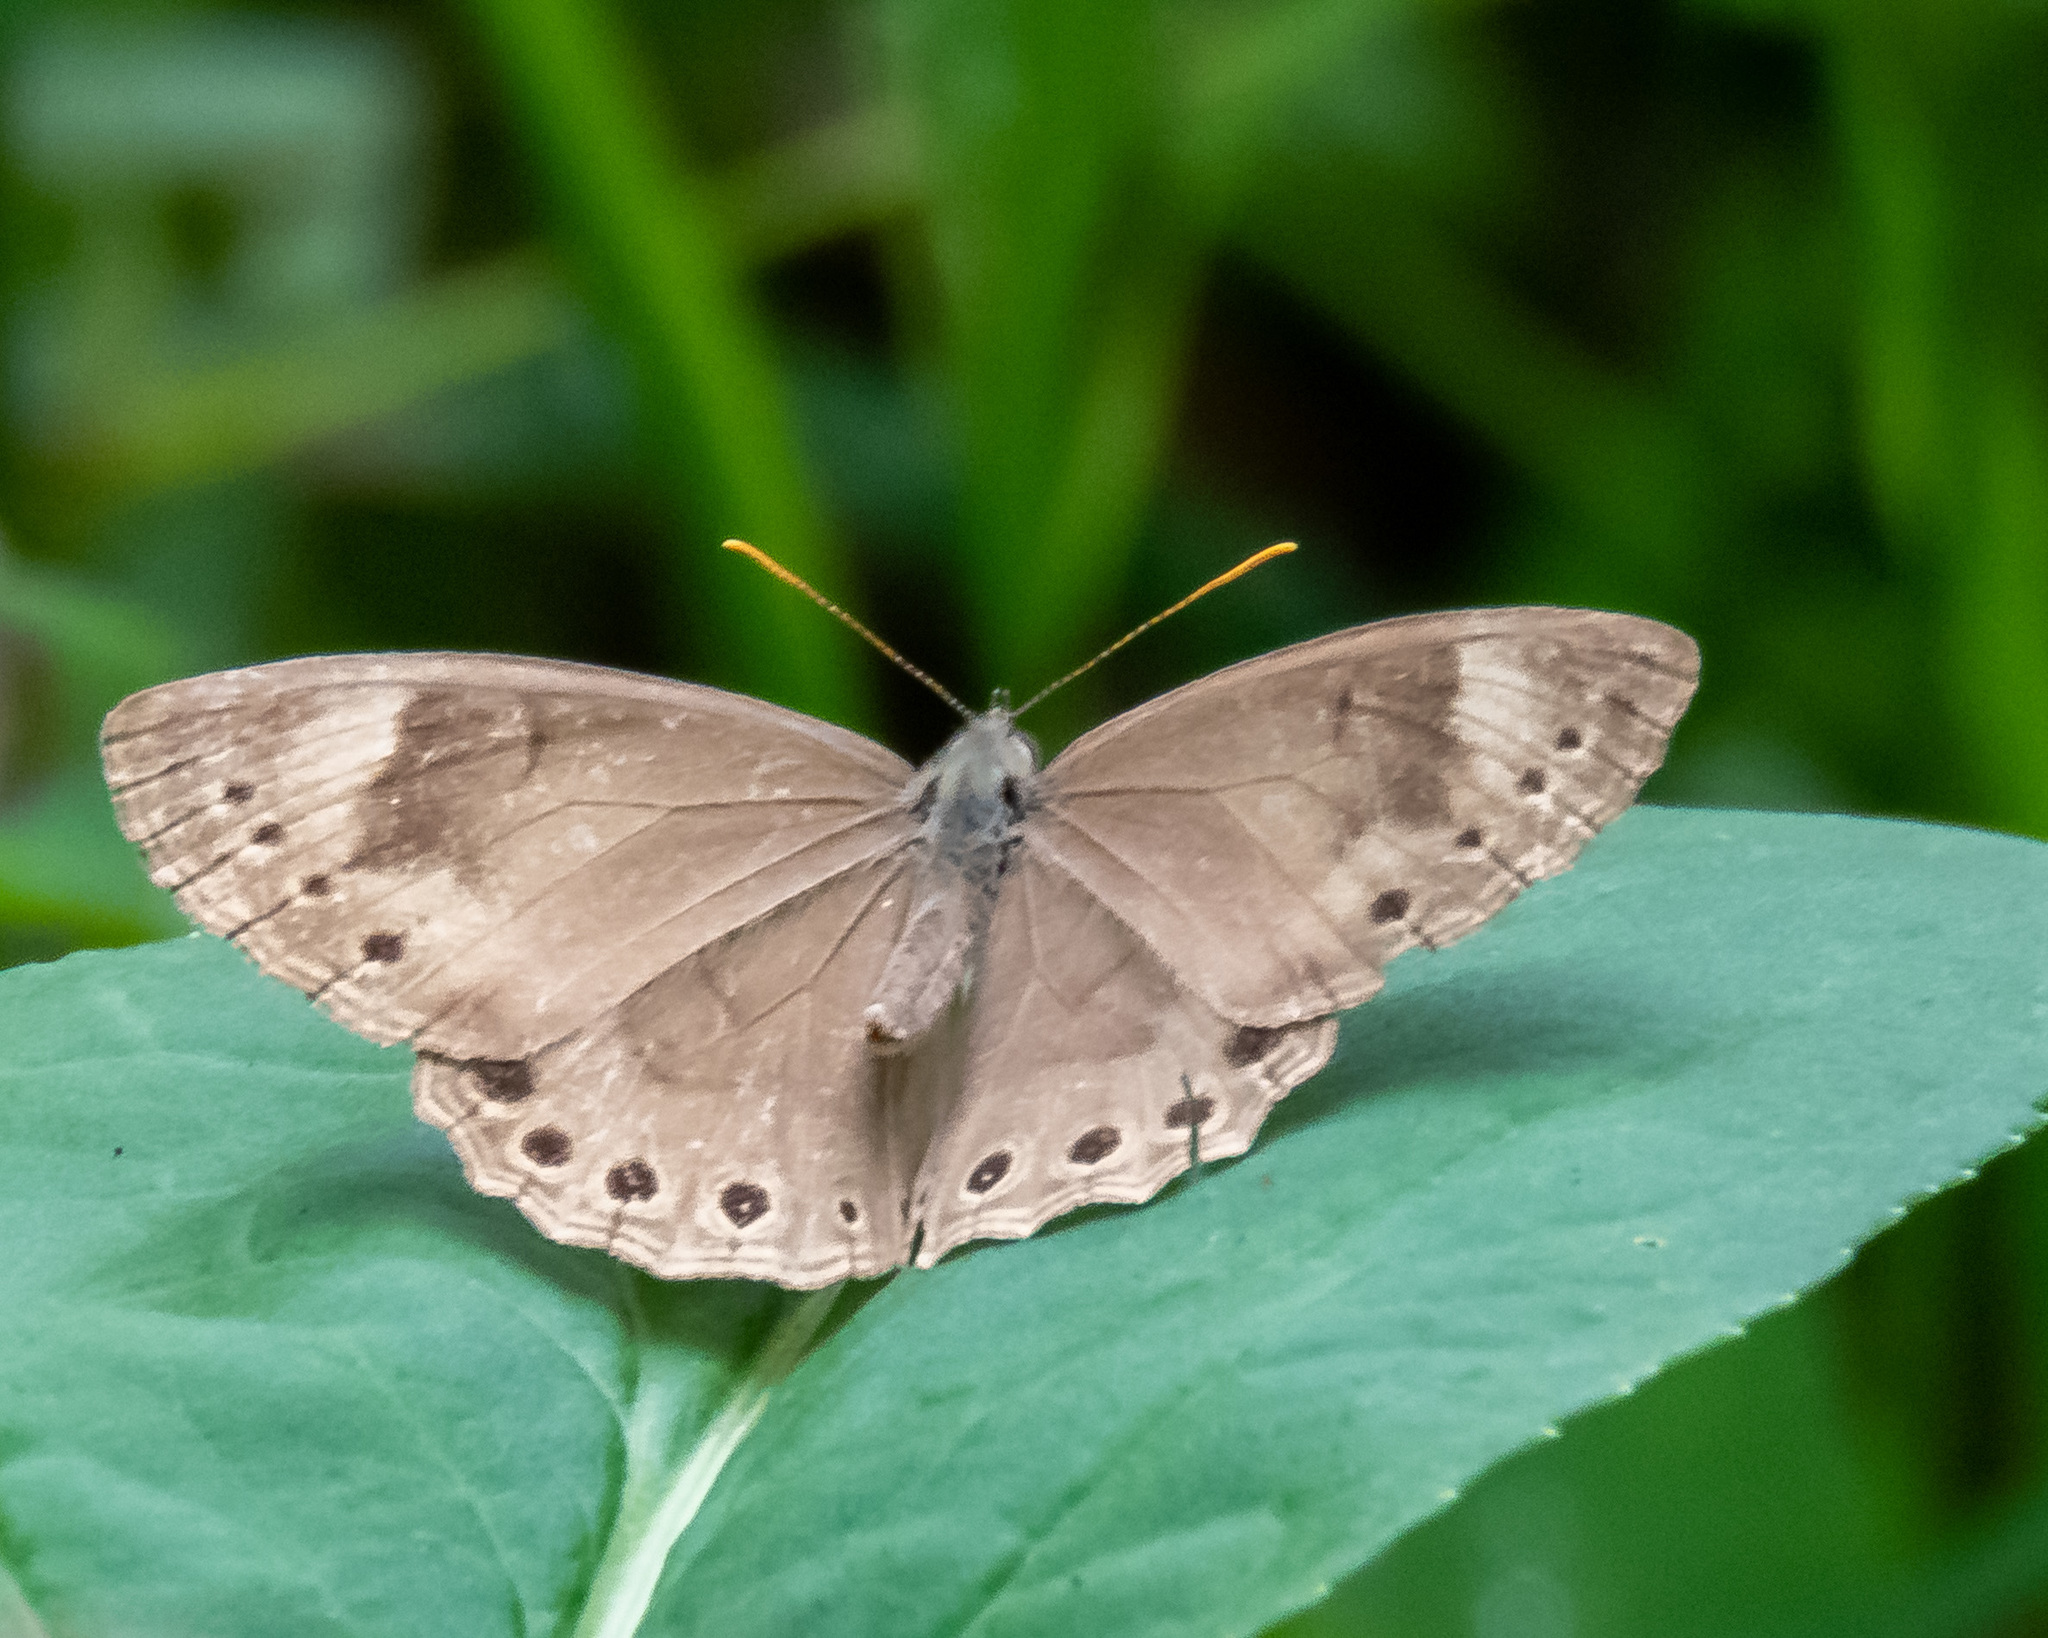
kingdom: Animalia
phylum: Arthropoda
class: Insecta
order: Lepidoptera
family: Nymphalidae
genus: Lethe
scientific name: Lethe eurydice
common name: Eyed brown
